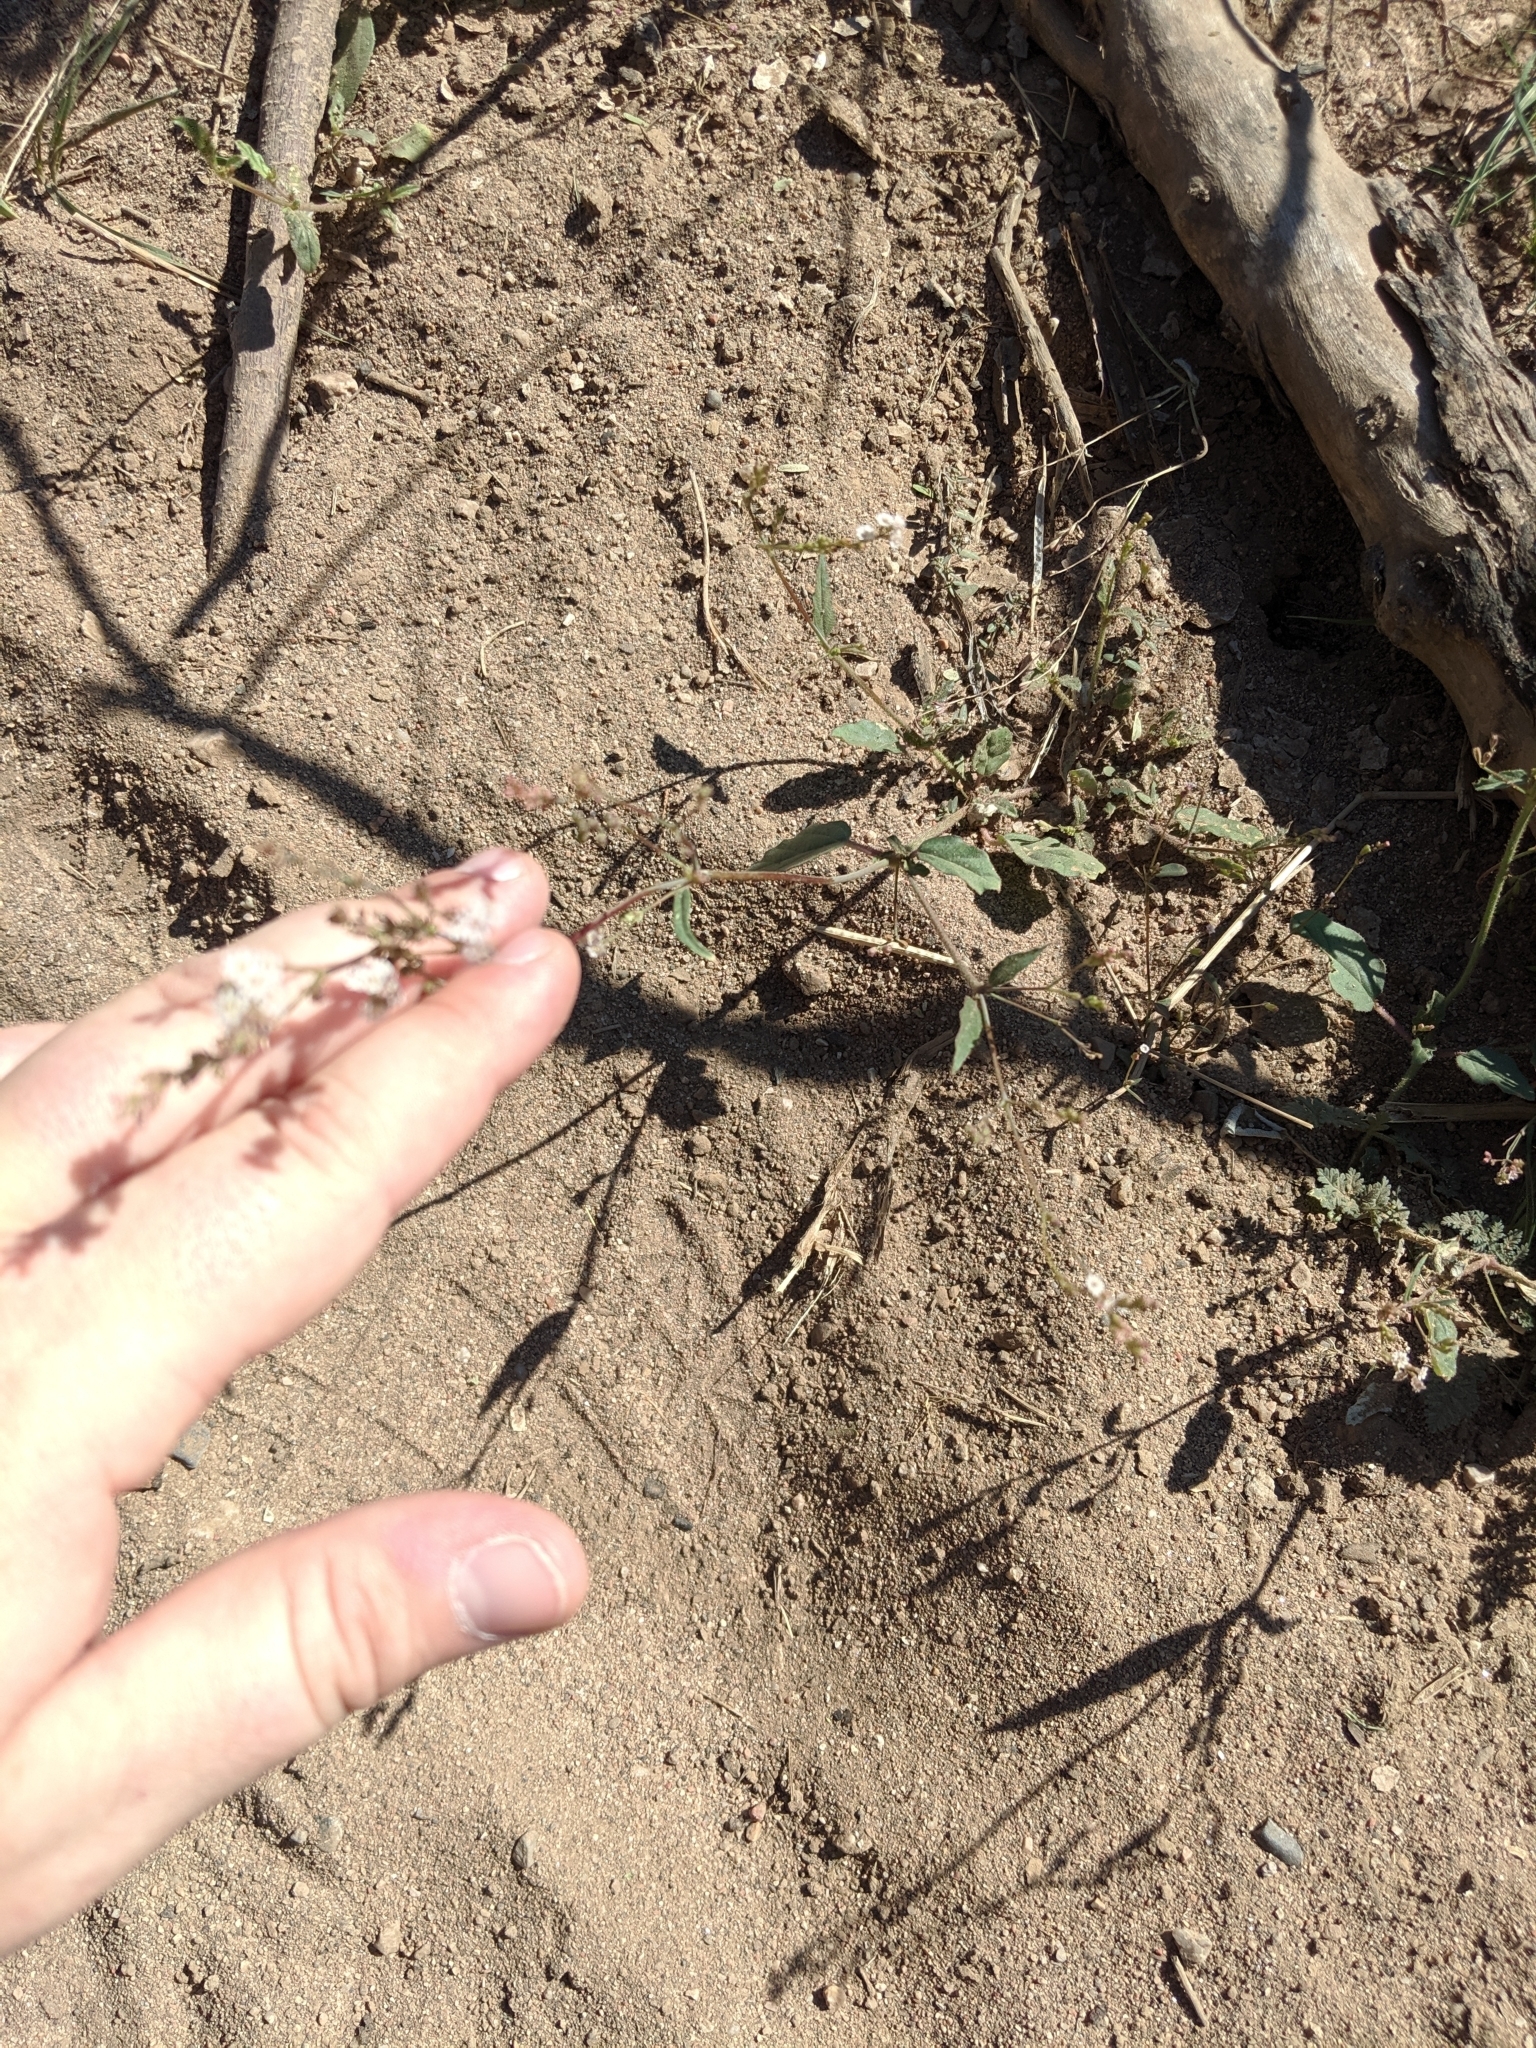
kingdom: Plantae
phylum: Tracheophyta
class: Magnoliopsida
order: Caryophyllales
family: Nyctaginaceae
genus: Boerhavia
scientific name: Boerhavia coulteri
